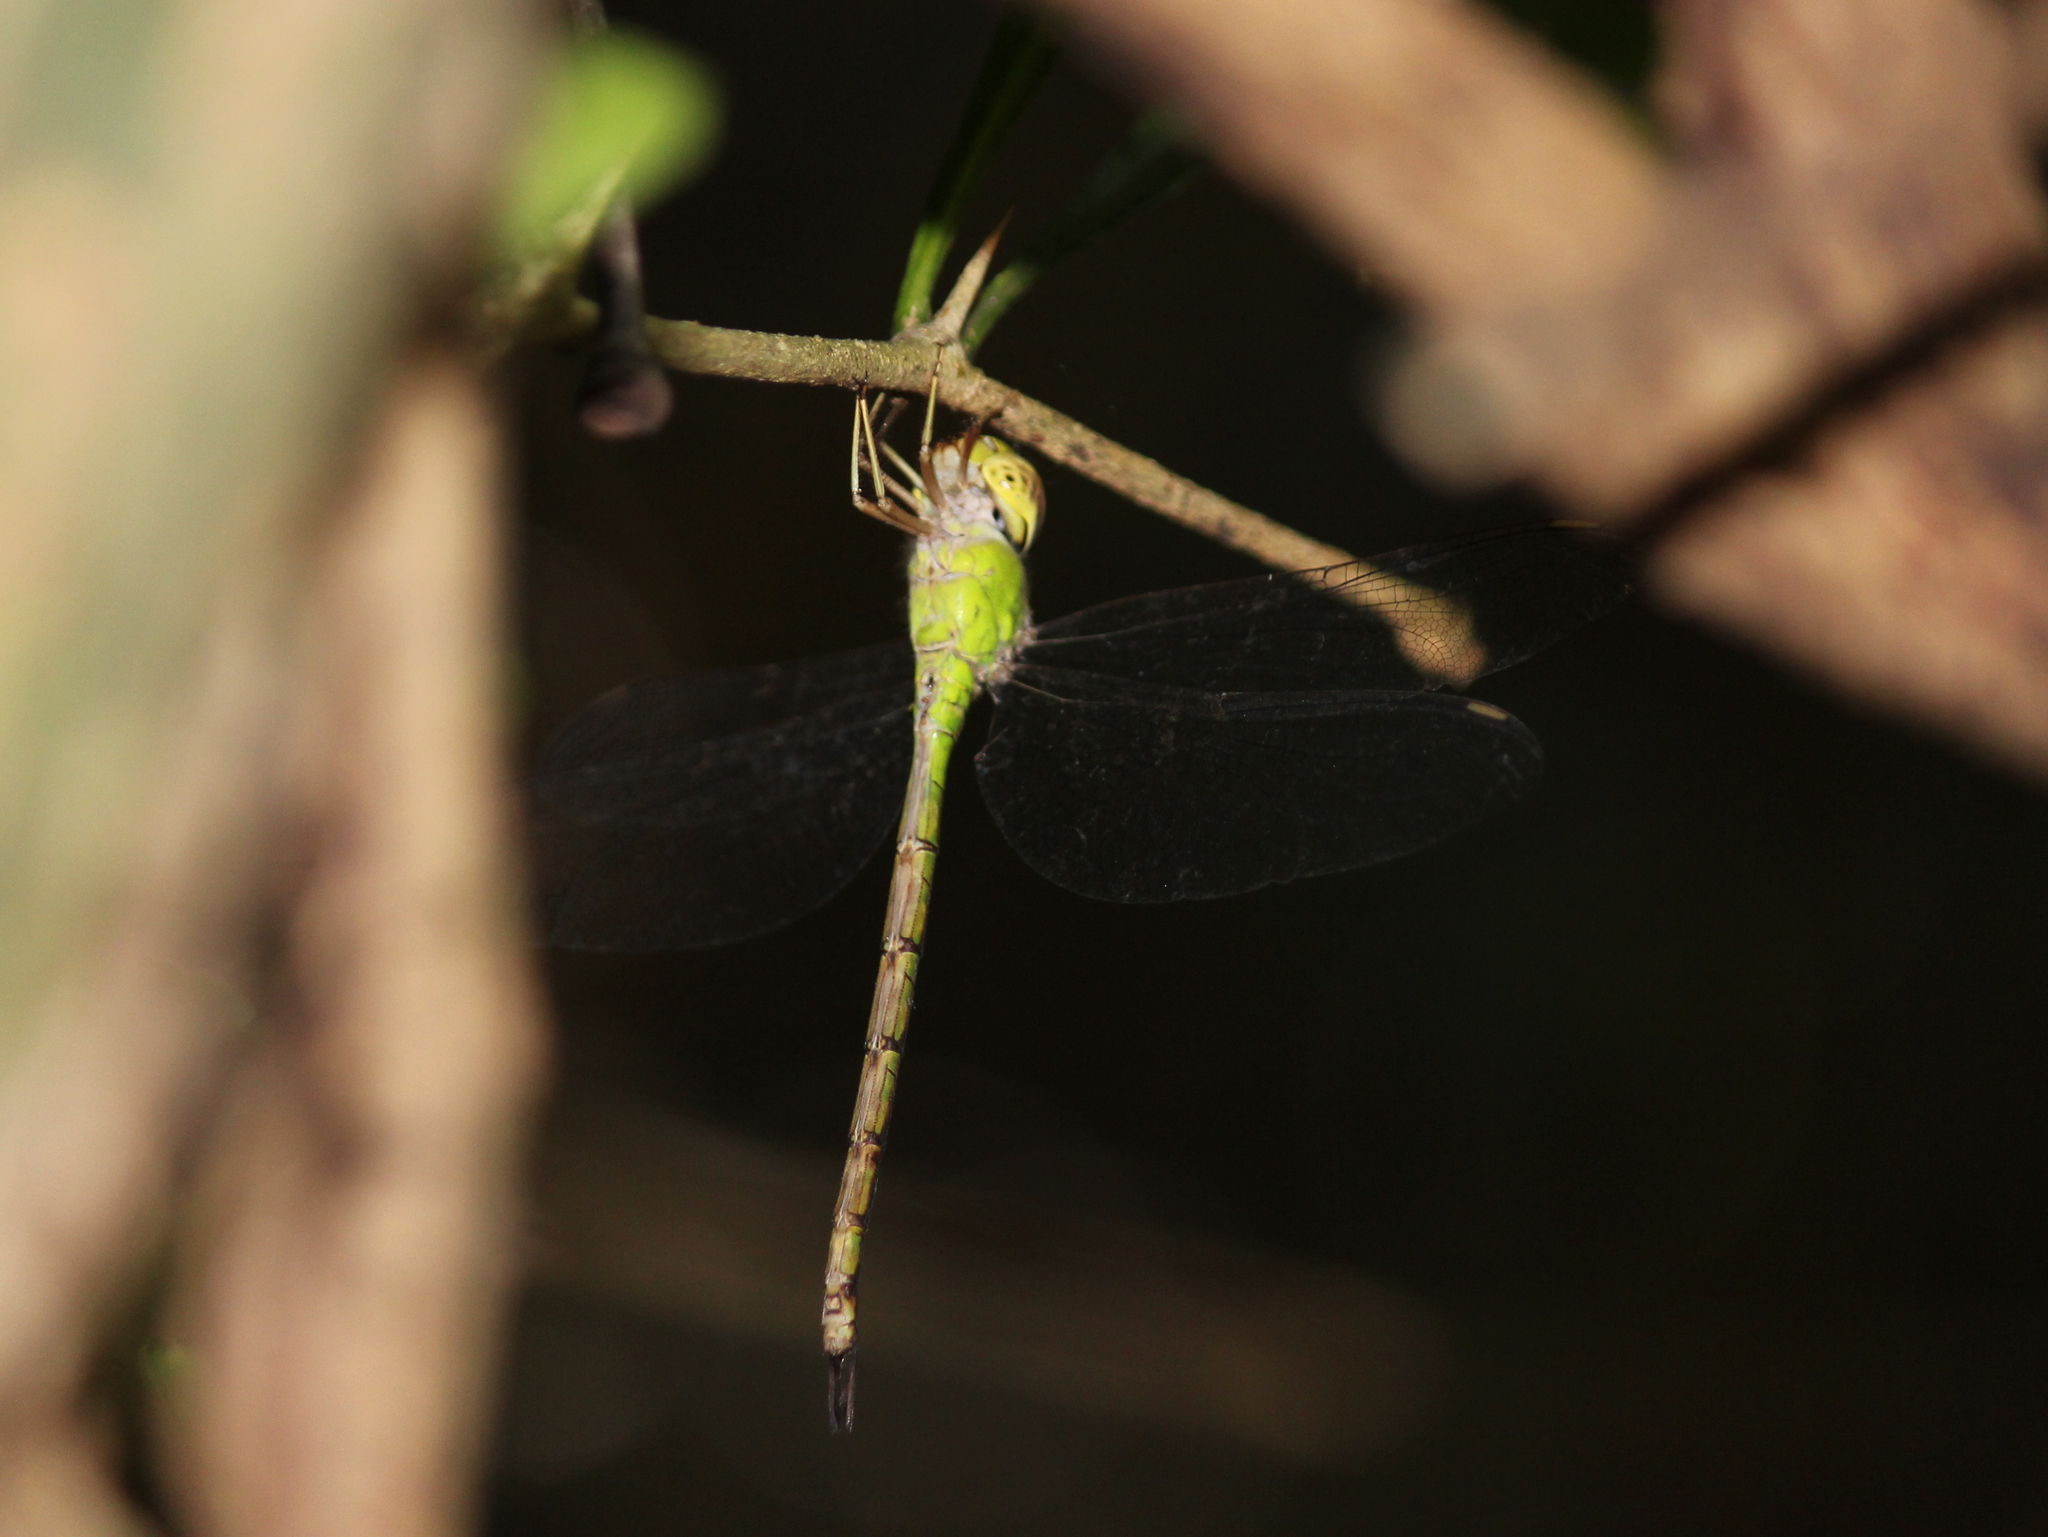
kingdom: Animalia
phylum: Arthropoda
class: Insecta
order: Odonata
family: Aeshnidae
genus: Gynacantha
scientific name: Gynacantha bayadera
